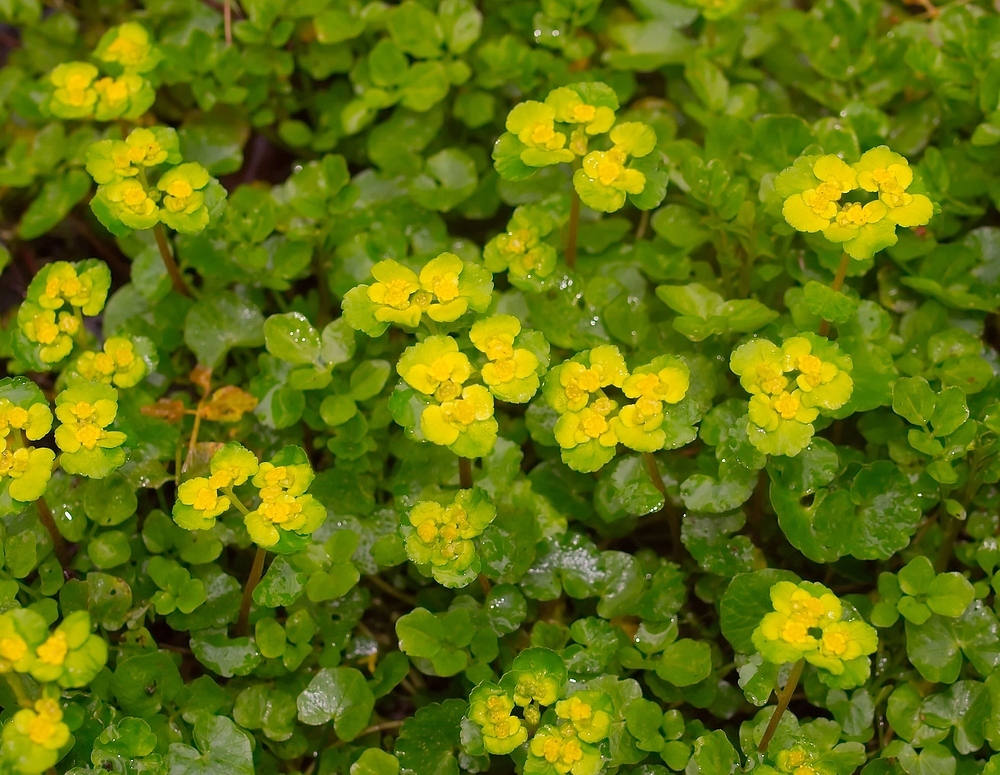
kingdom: Plantae
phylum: Tracheophyta
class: Magnoliopsida
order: Saxifragales
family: Saxifragaceae
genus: Chrysosplenium
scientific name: Chrysosplenium alternifolium
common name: Alternate-leaved golden-saxifrage
